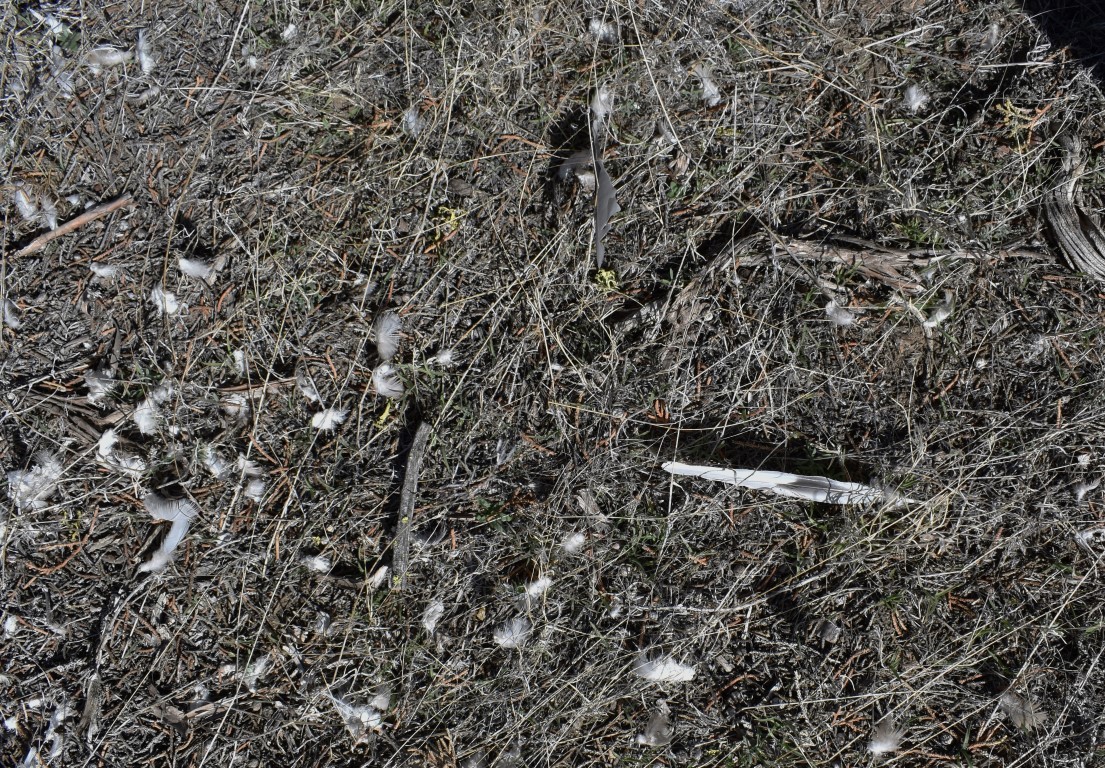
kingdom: Animalia
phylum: Chordata
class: Aves
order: Columbiformes
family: Columbidae
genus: Streptopelia
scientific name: Streptopelia decaocto
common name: Eurasian collared dove
